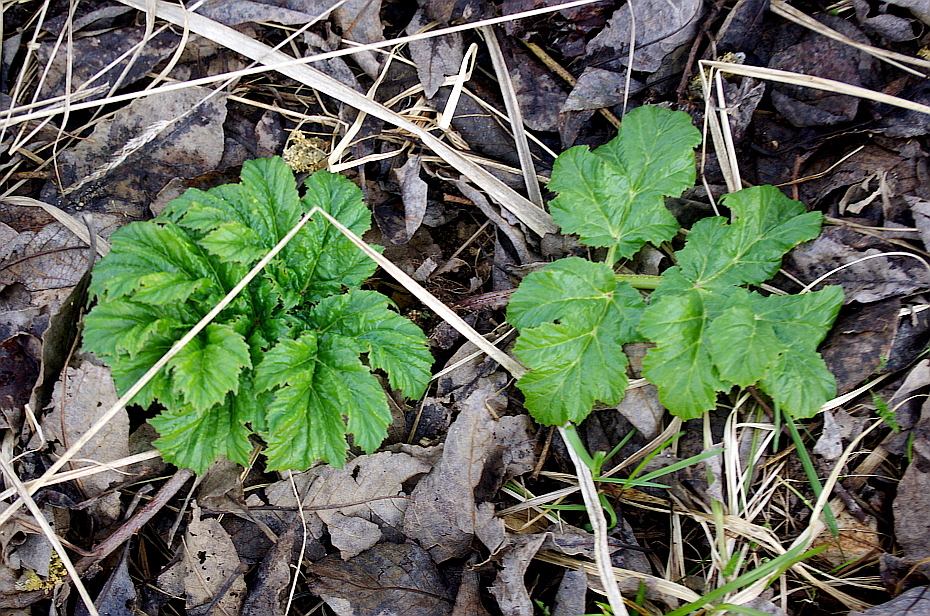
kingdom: Plantae
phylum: Tracheophyta
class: Magnoliopsida
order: Apiales
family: Apiaceae
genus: Heracleum
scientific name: Heracleum sosnowskyi
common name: Sosnowsky's hogweed
